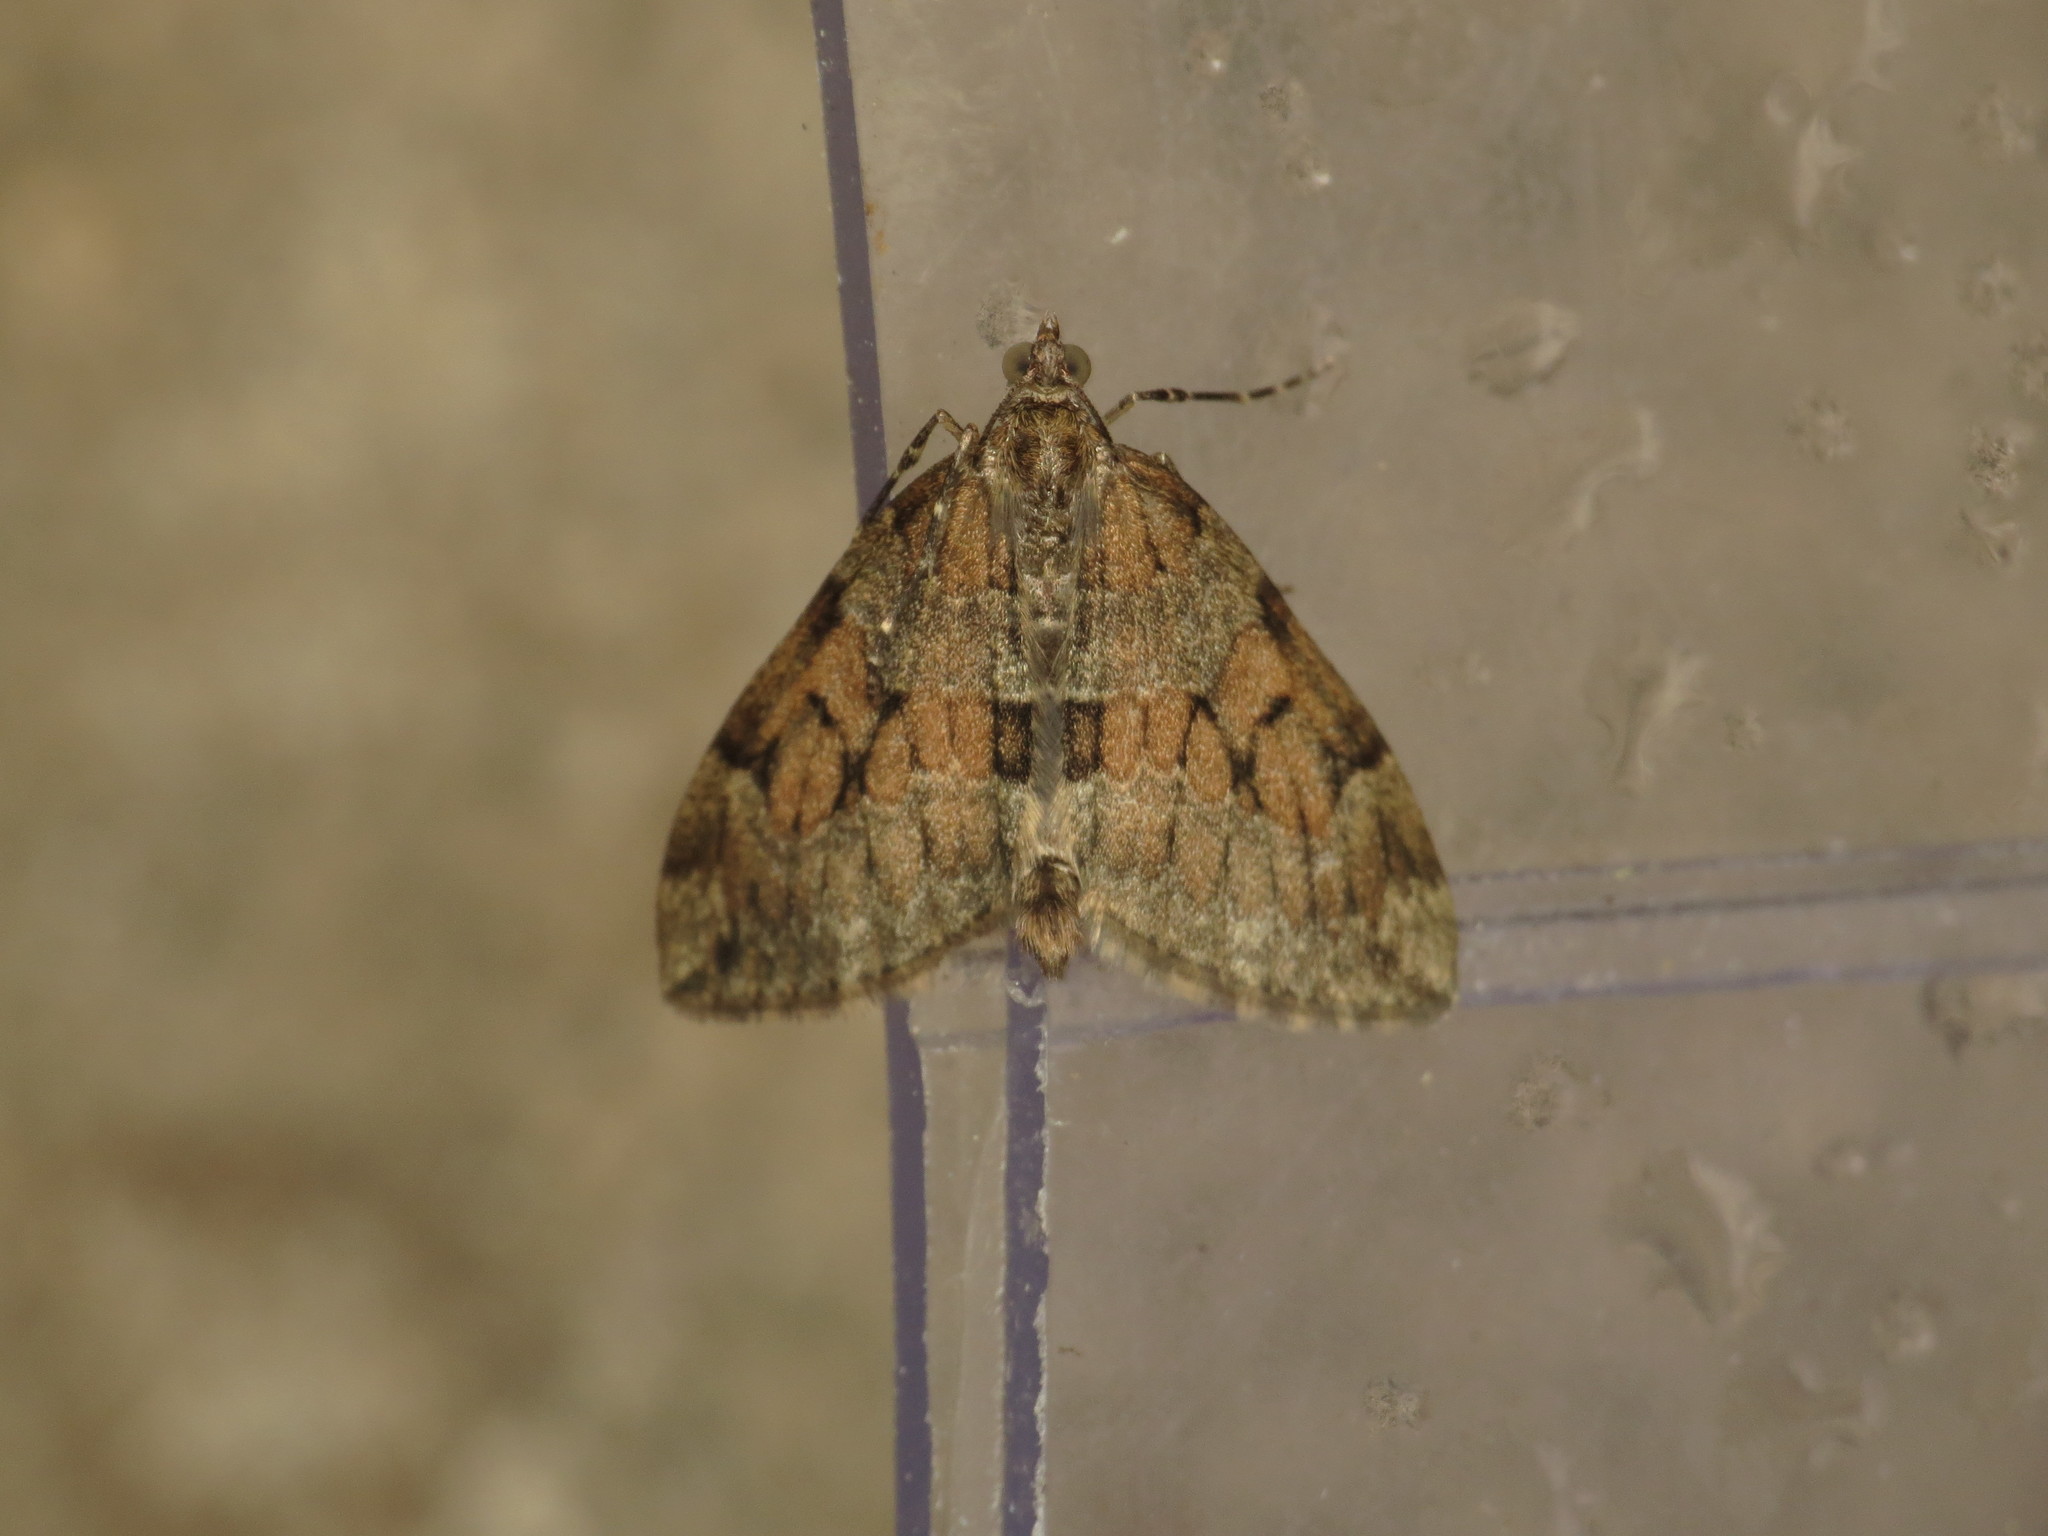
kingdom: Animalia
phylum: Arthropoda
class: Insecta
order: Lepidoptera
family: Geometridae
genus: Thera
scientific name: Thera obeliscata
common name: Grey pine carpet
